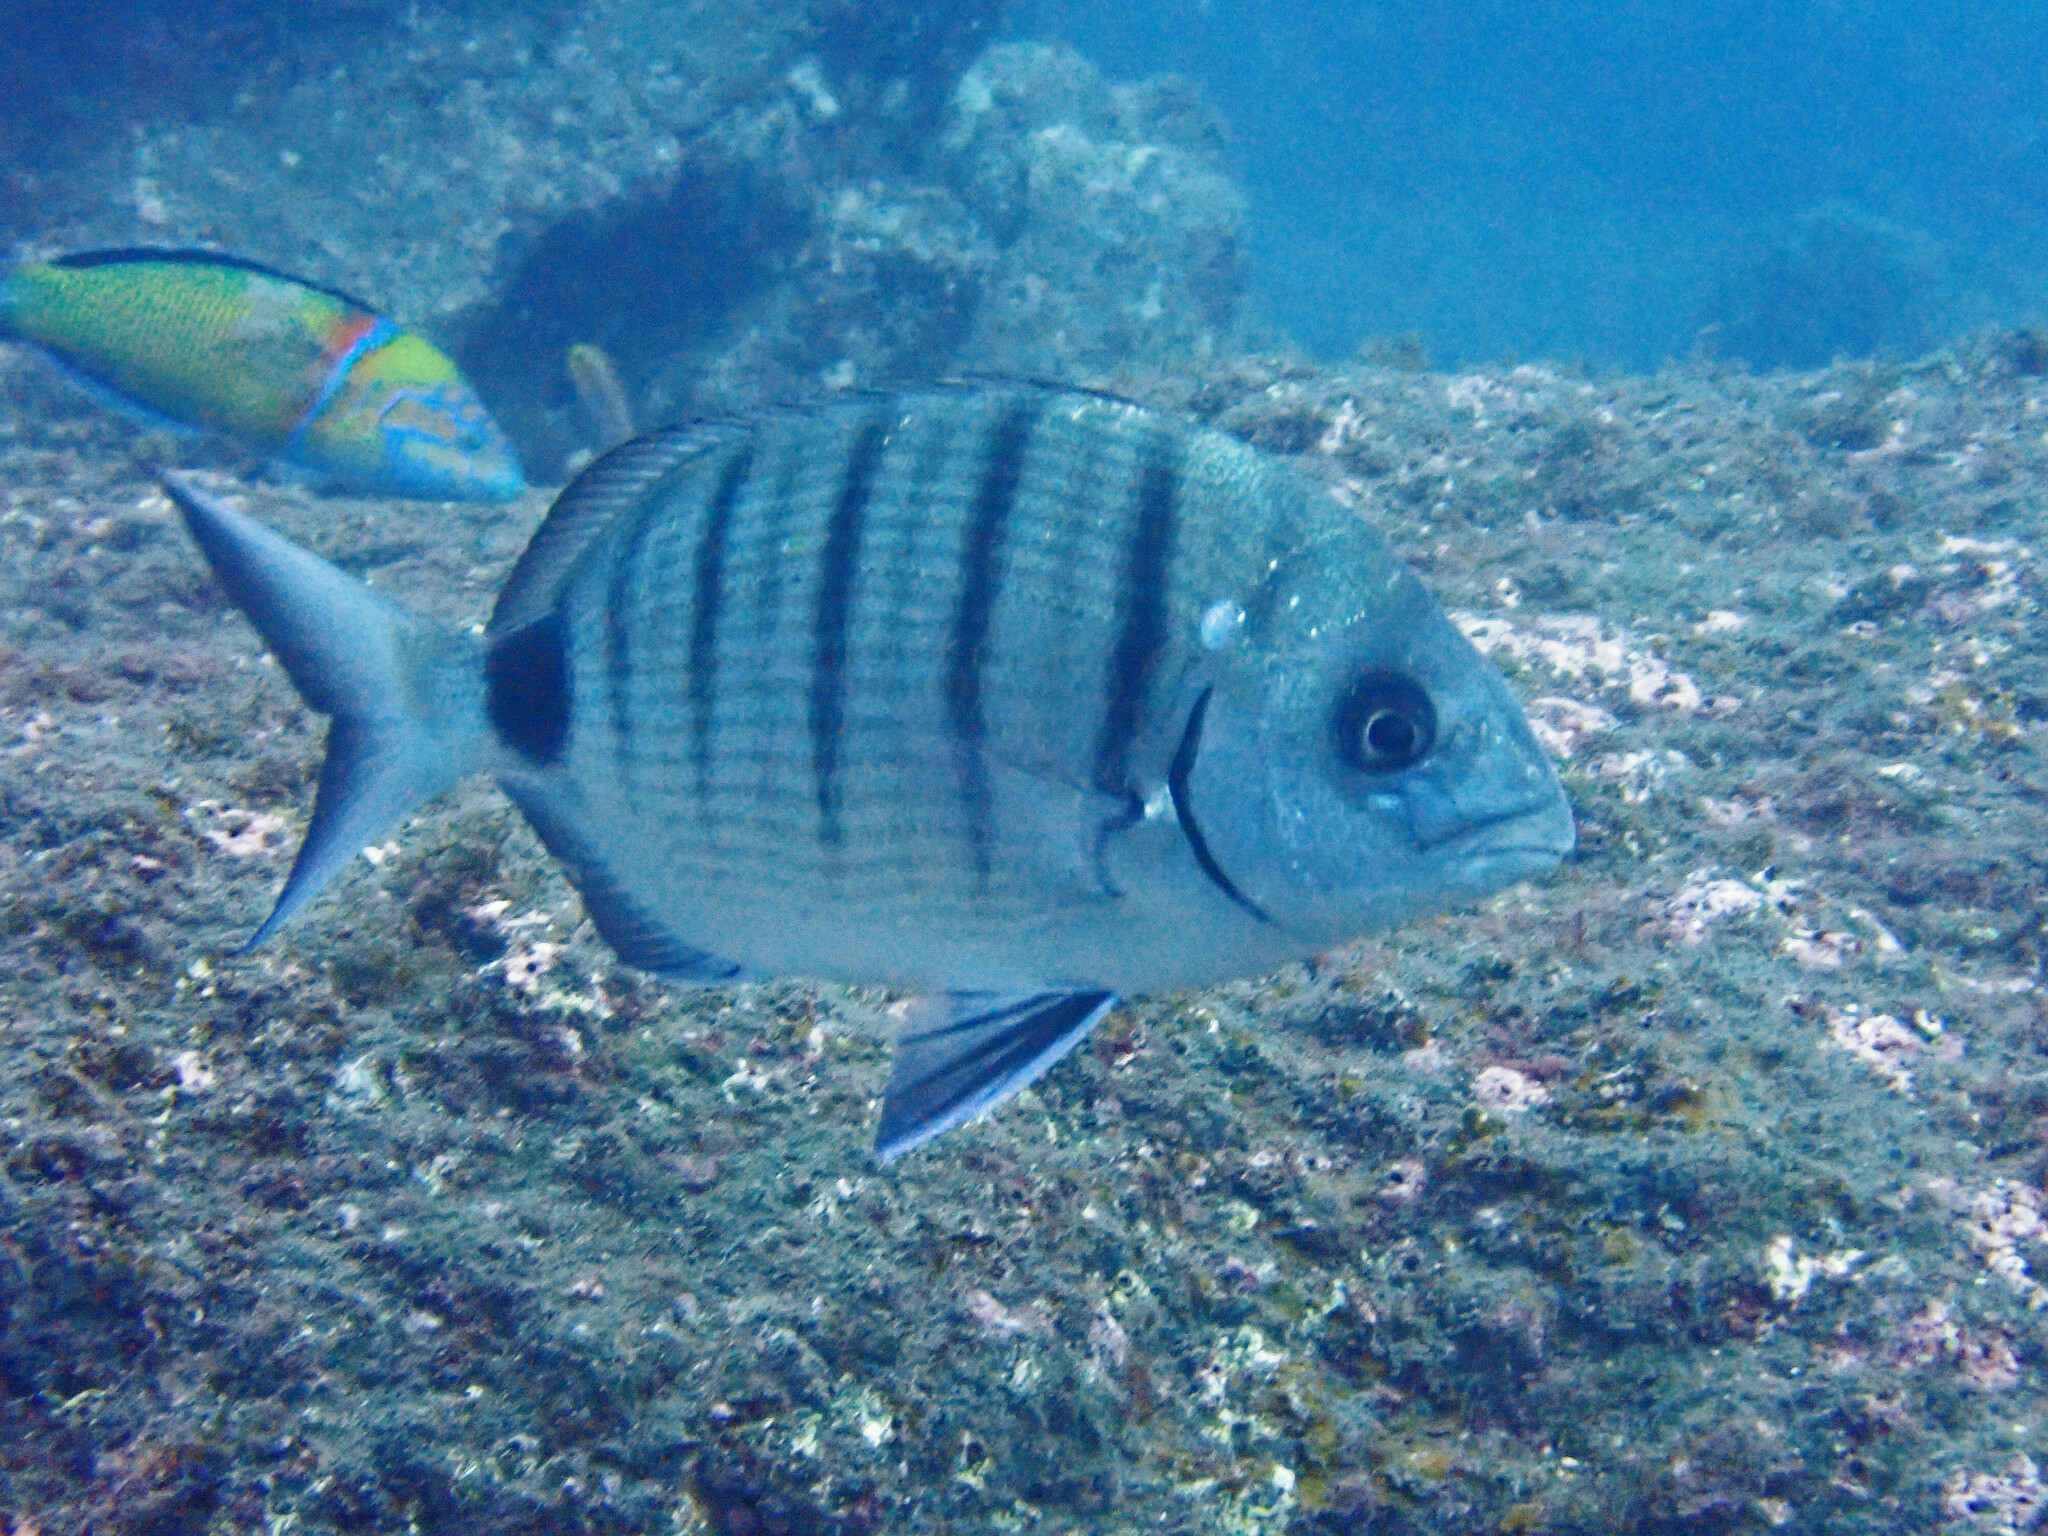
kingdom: Animalia
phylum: Chordata
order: Perciformes
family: Sparidae
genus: Diplodus
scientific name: Diplodus cadenati
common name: Moroccan white seabream
